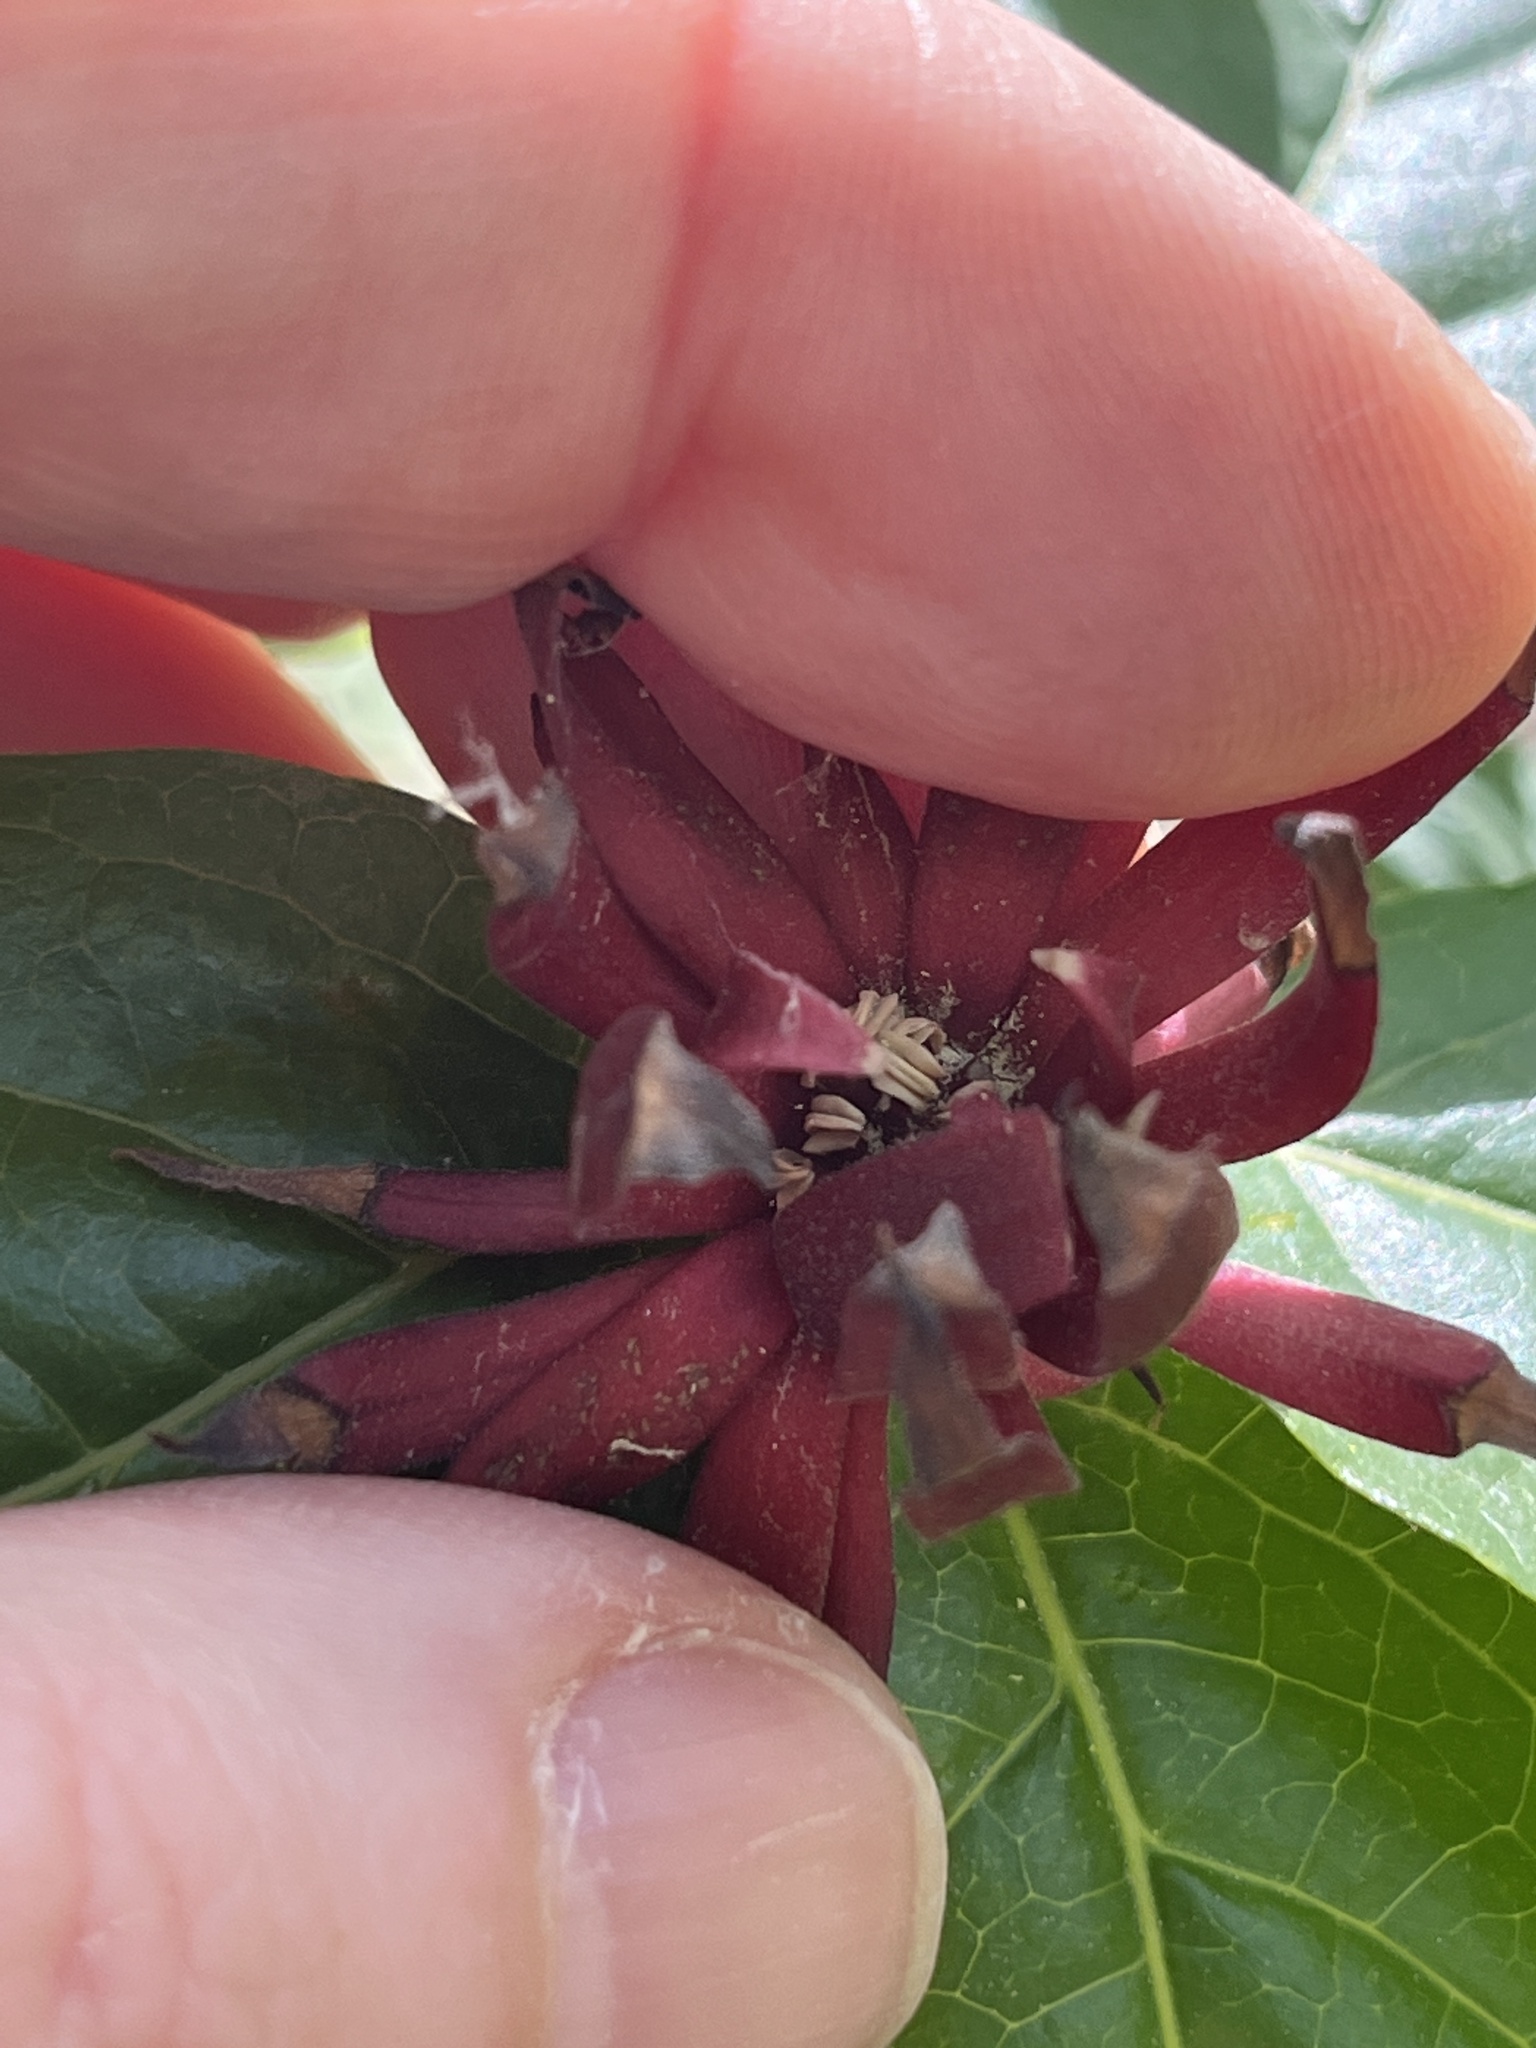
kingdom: Plantae
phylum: Tracheophyta
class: Magnoliopsida
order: Laurales
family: Calycanthaceae
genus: Calycanthus
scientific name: Calycanthus floridus
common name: Carolina-allspice
